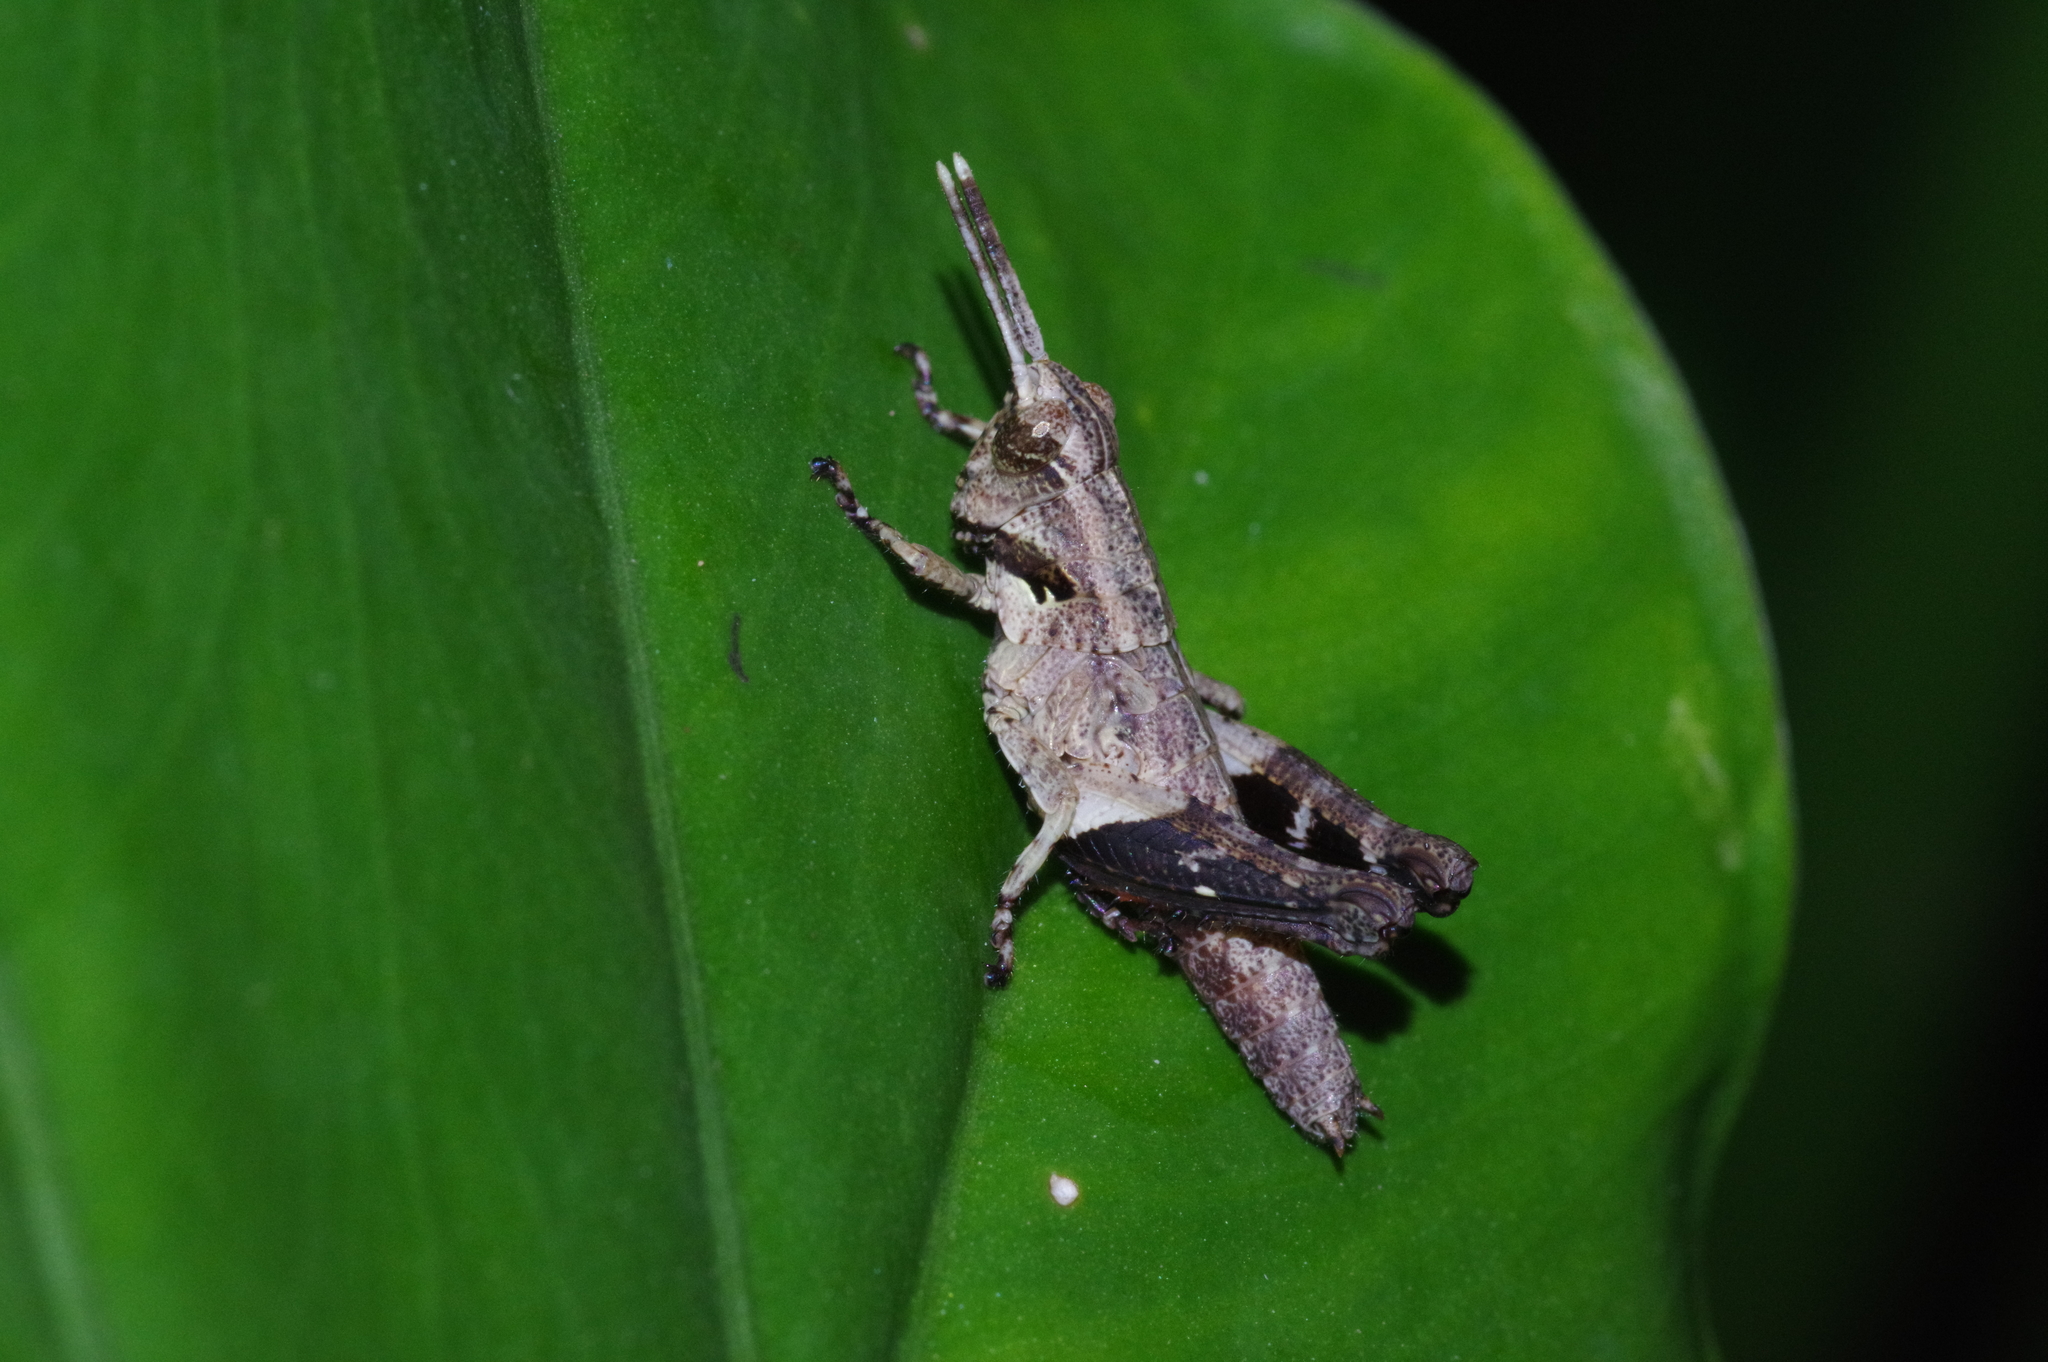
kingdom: Animalia
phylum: Arthropoda
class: Insecta
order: Orthoptera
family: Acrididae
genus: Traulia
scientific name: Traulia ornata
